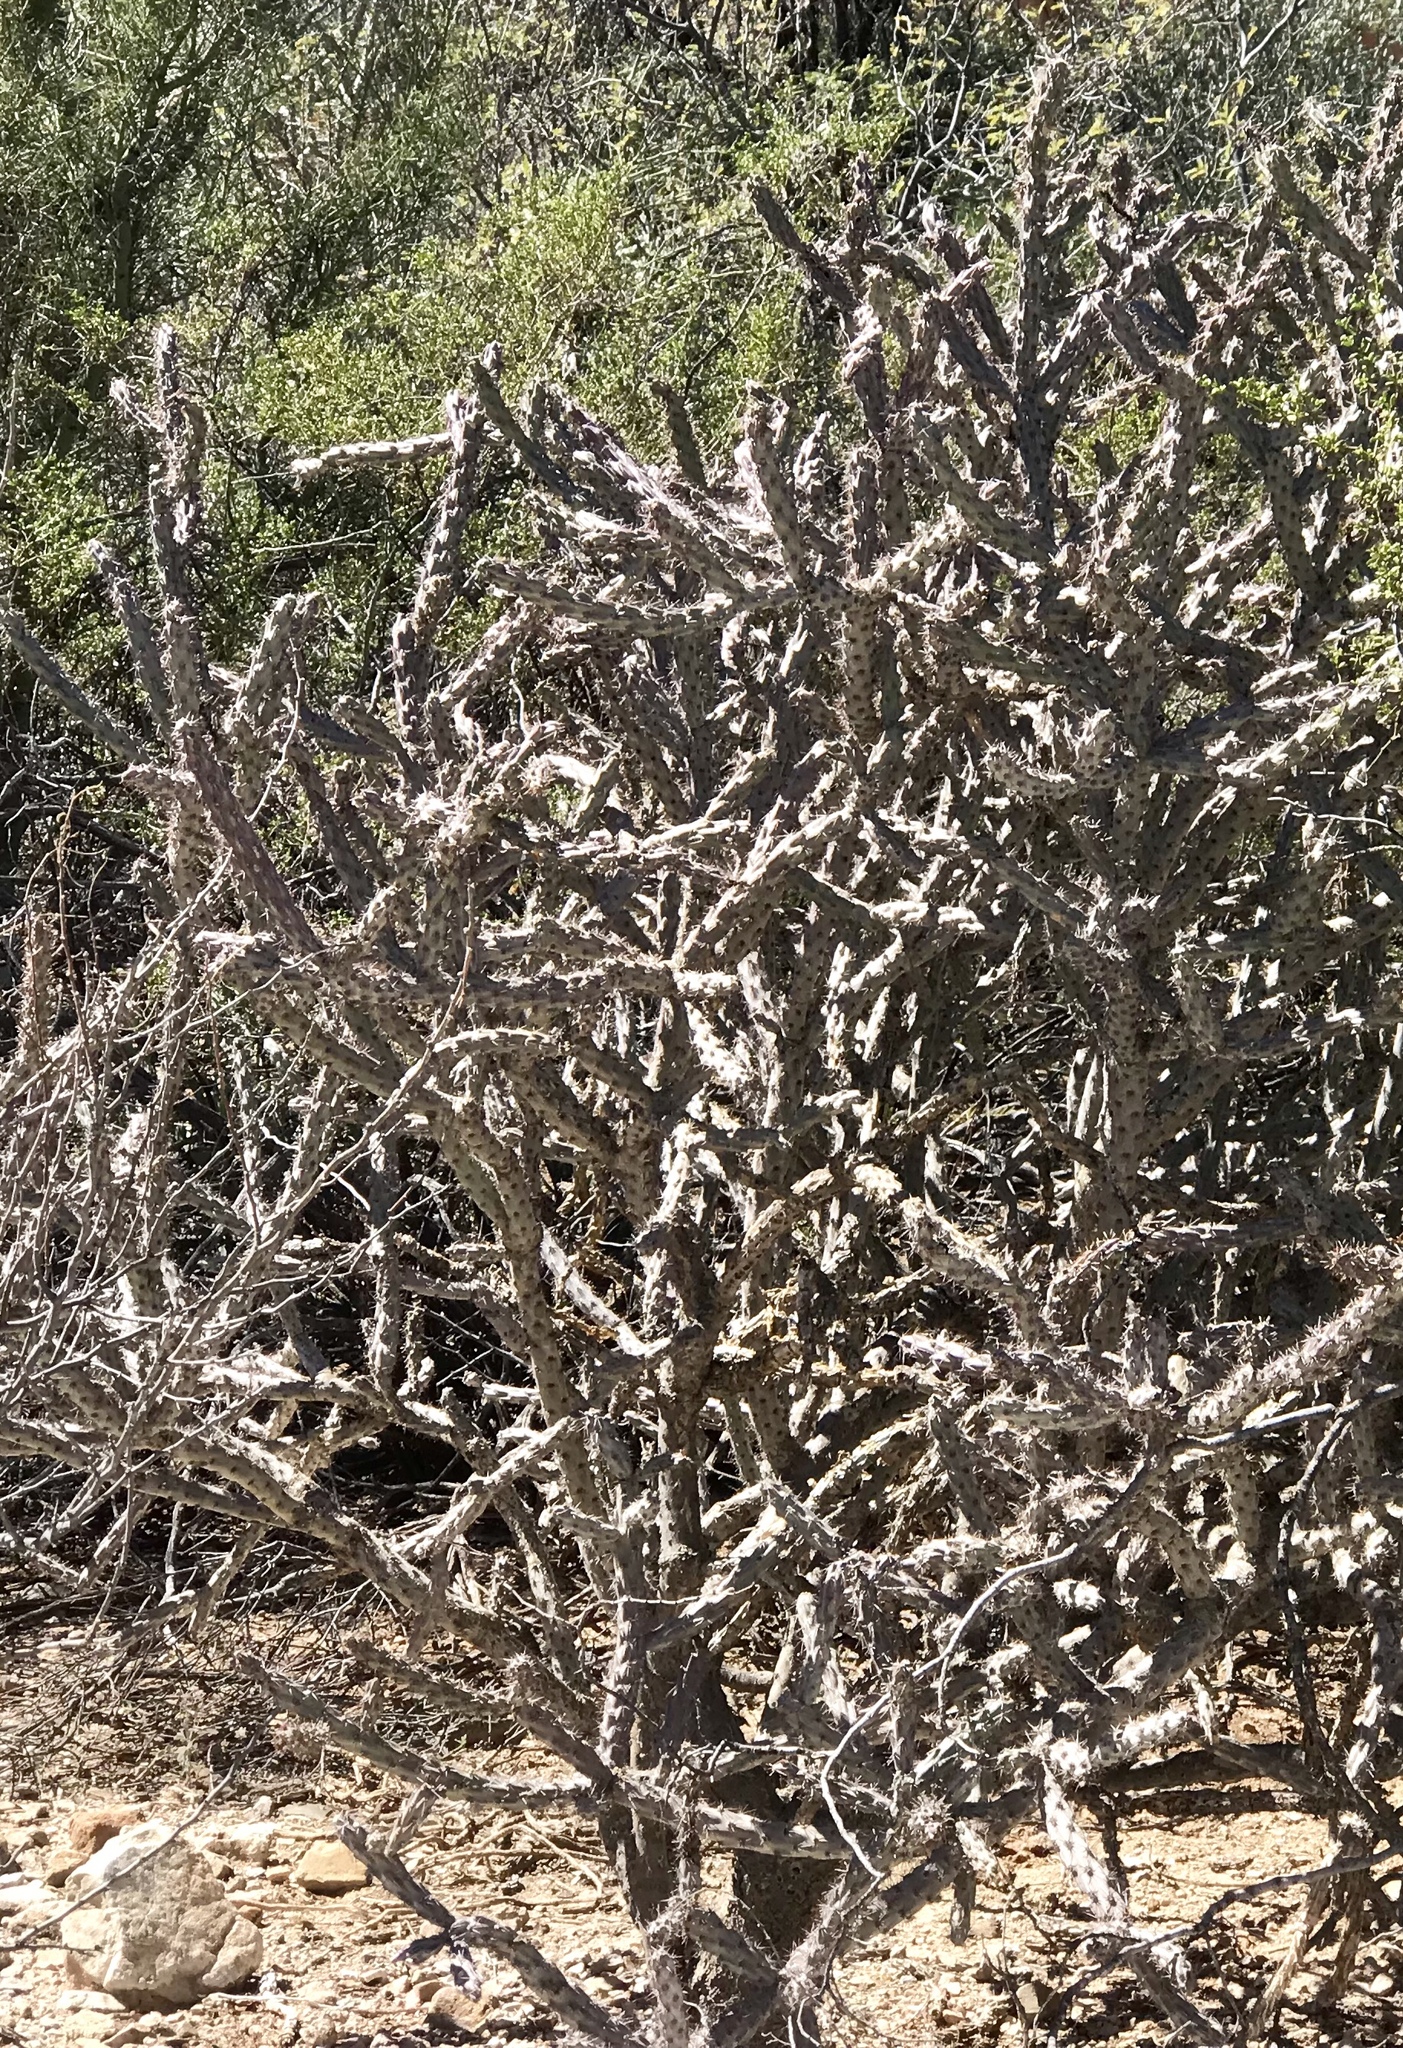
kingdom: Plantae
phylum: Tracheophyta
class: Magnoliopsida
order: Caryophyllales
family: Cactaceae
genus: Cylindropuntia
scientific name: Cylindropuntia thurberi
